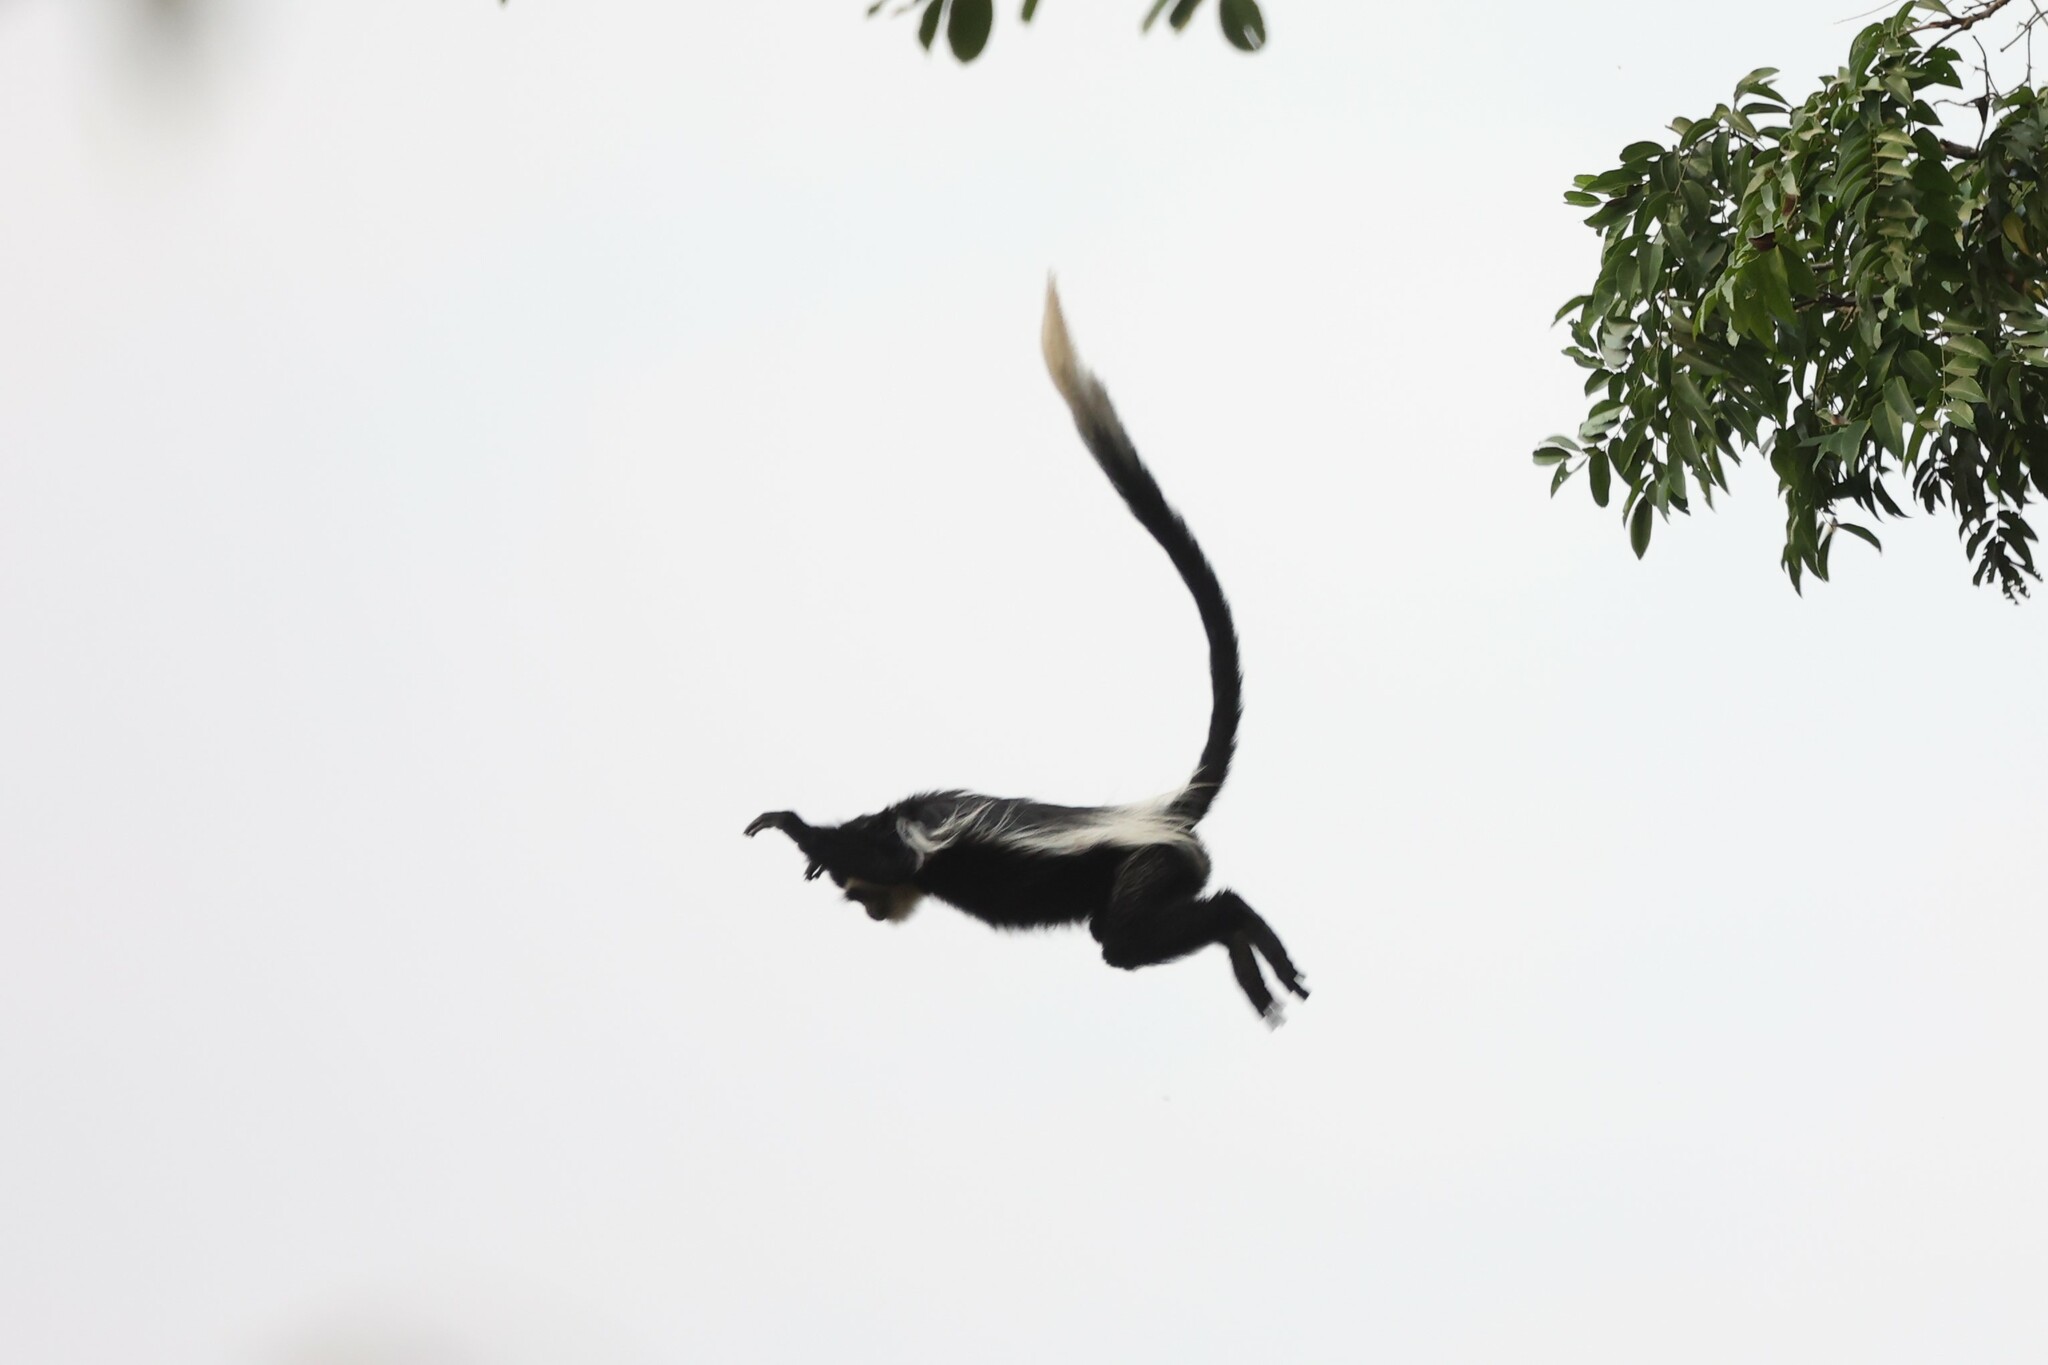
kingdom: Animalia
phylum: Chordata
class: Mammalia
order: Primates
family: Cercopithecidae
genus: Colobus
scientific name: Colobus guereza
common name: Mantled guereza
